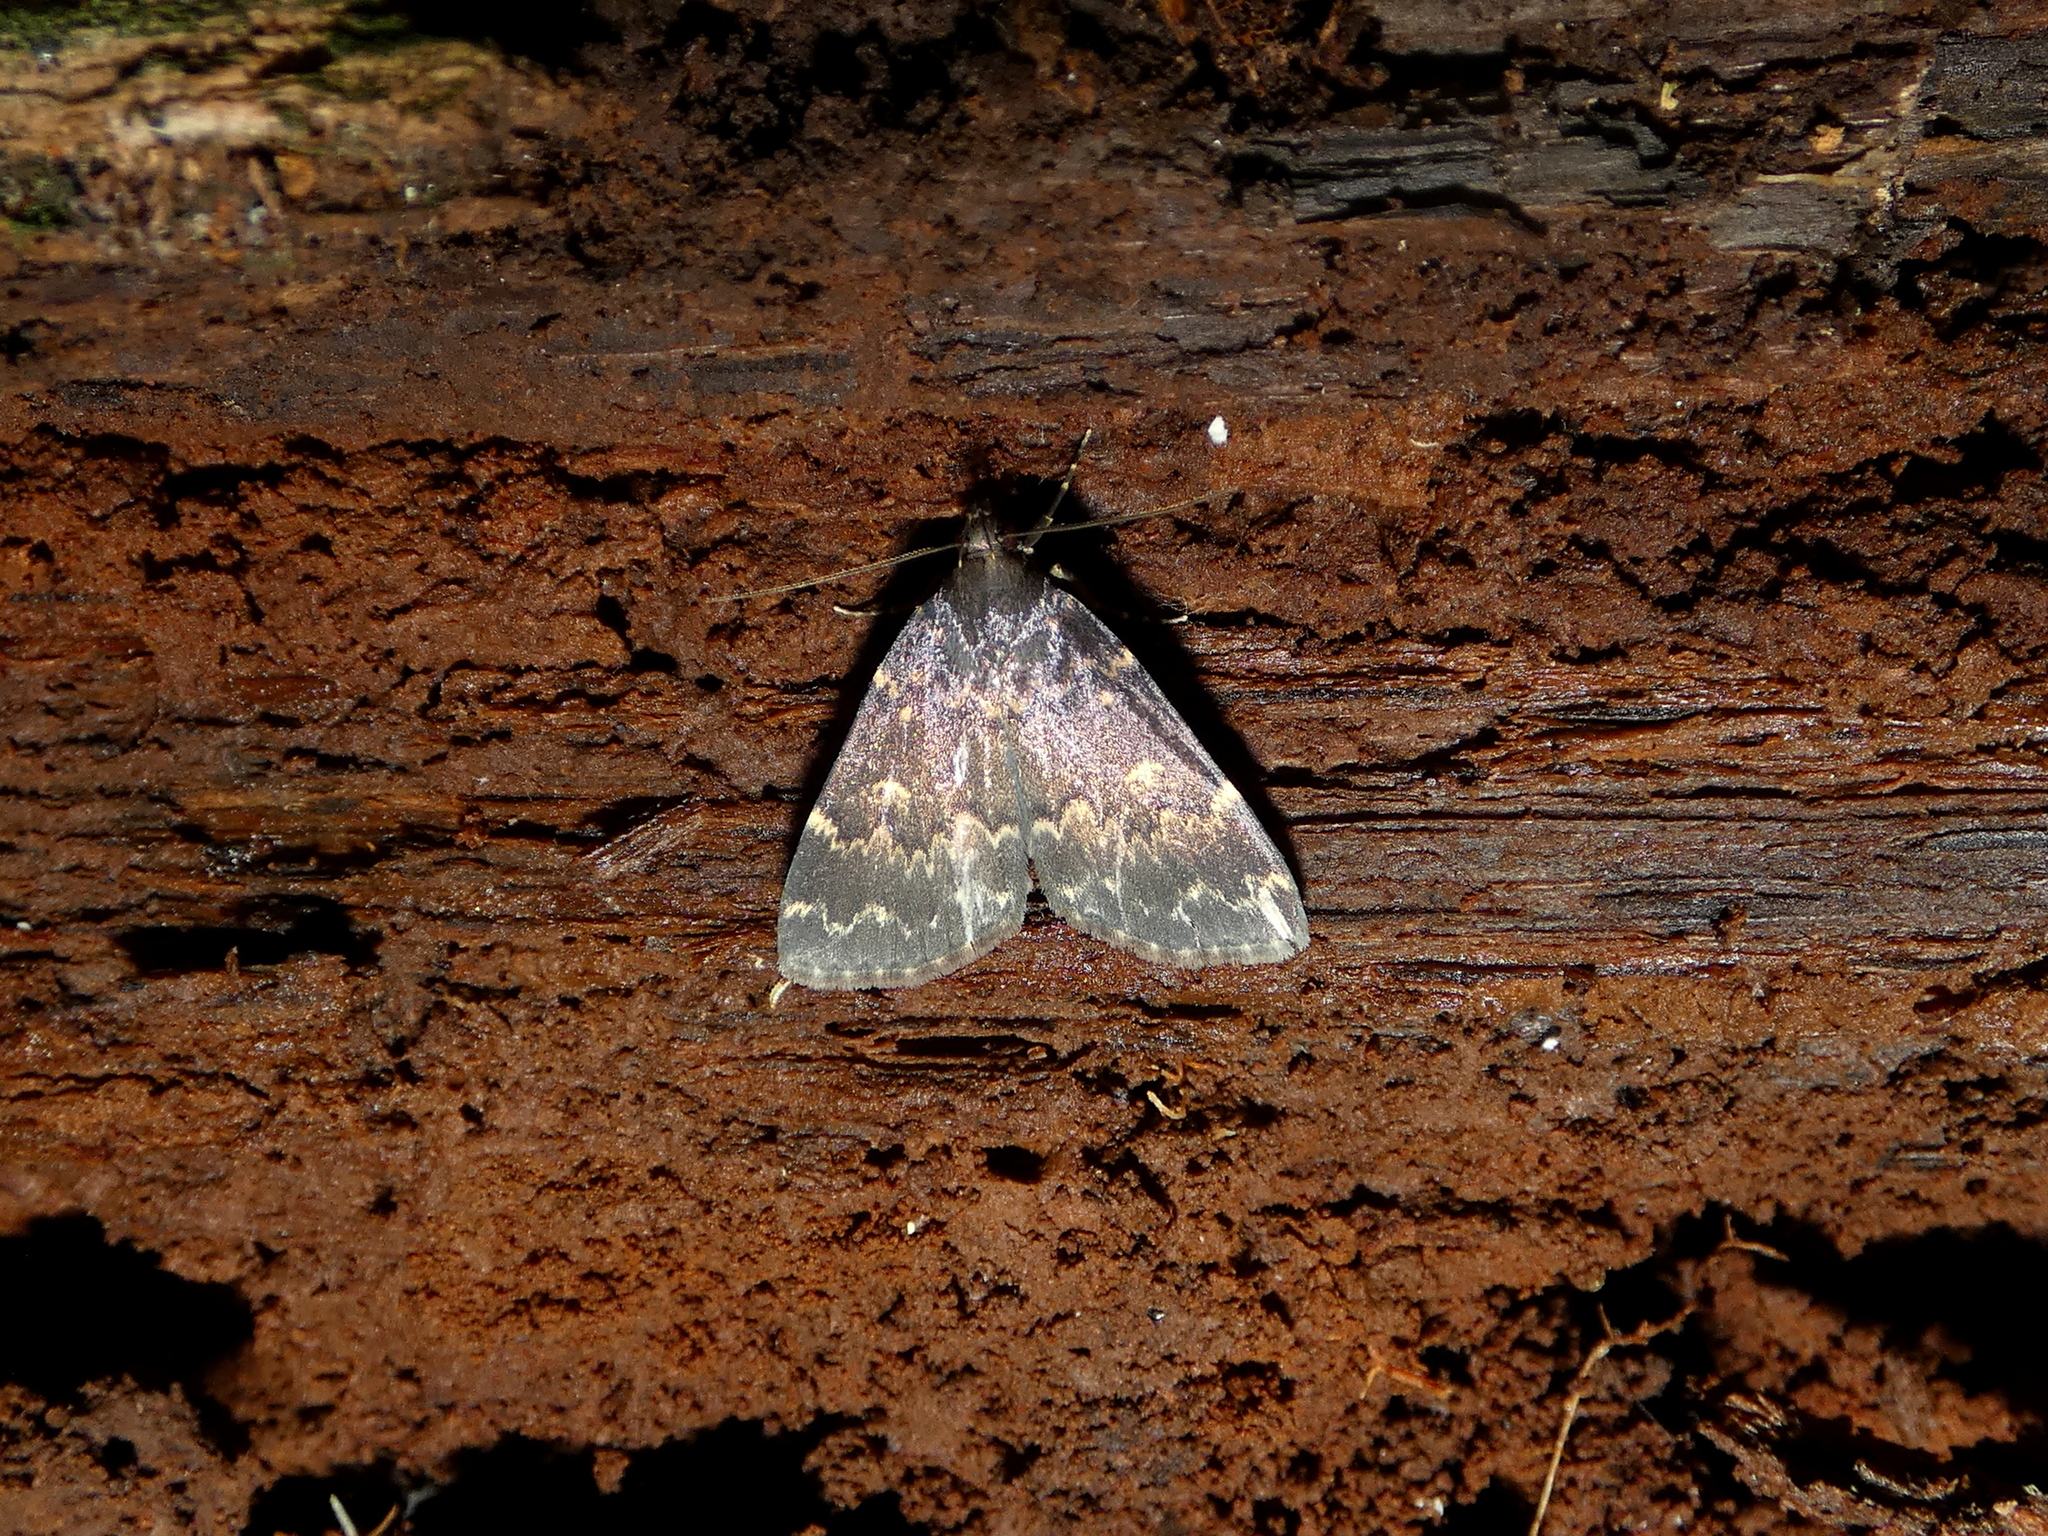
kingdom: Animalia
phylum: Arthropoda
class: Insecta
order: Lepidoptera
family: Erebidae
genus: Idia
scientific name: Idia lubricalis
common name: Twin-striped tabby
